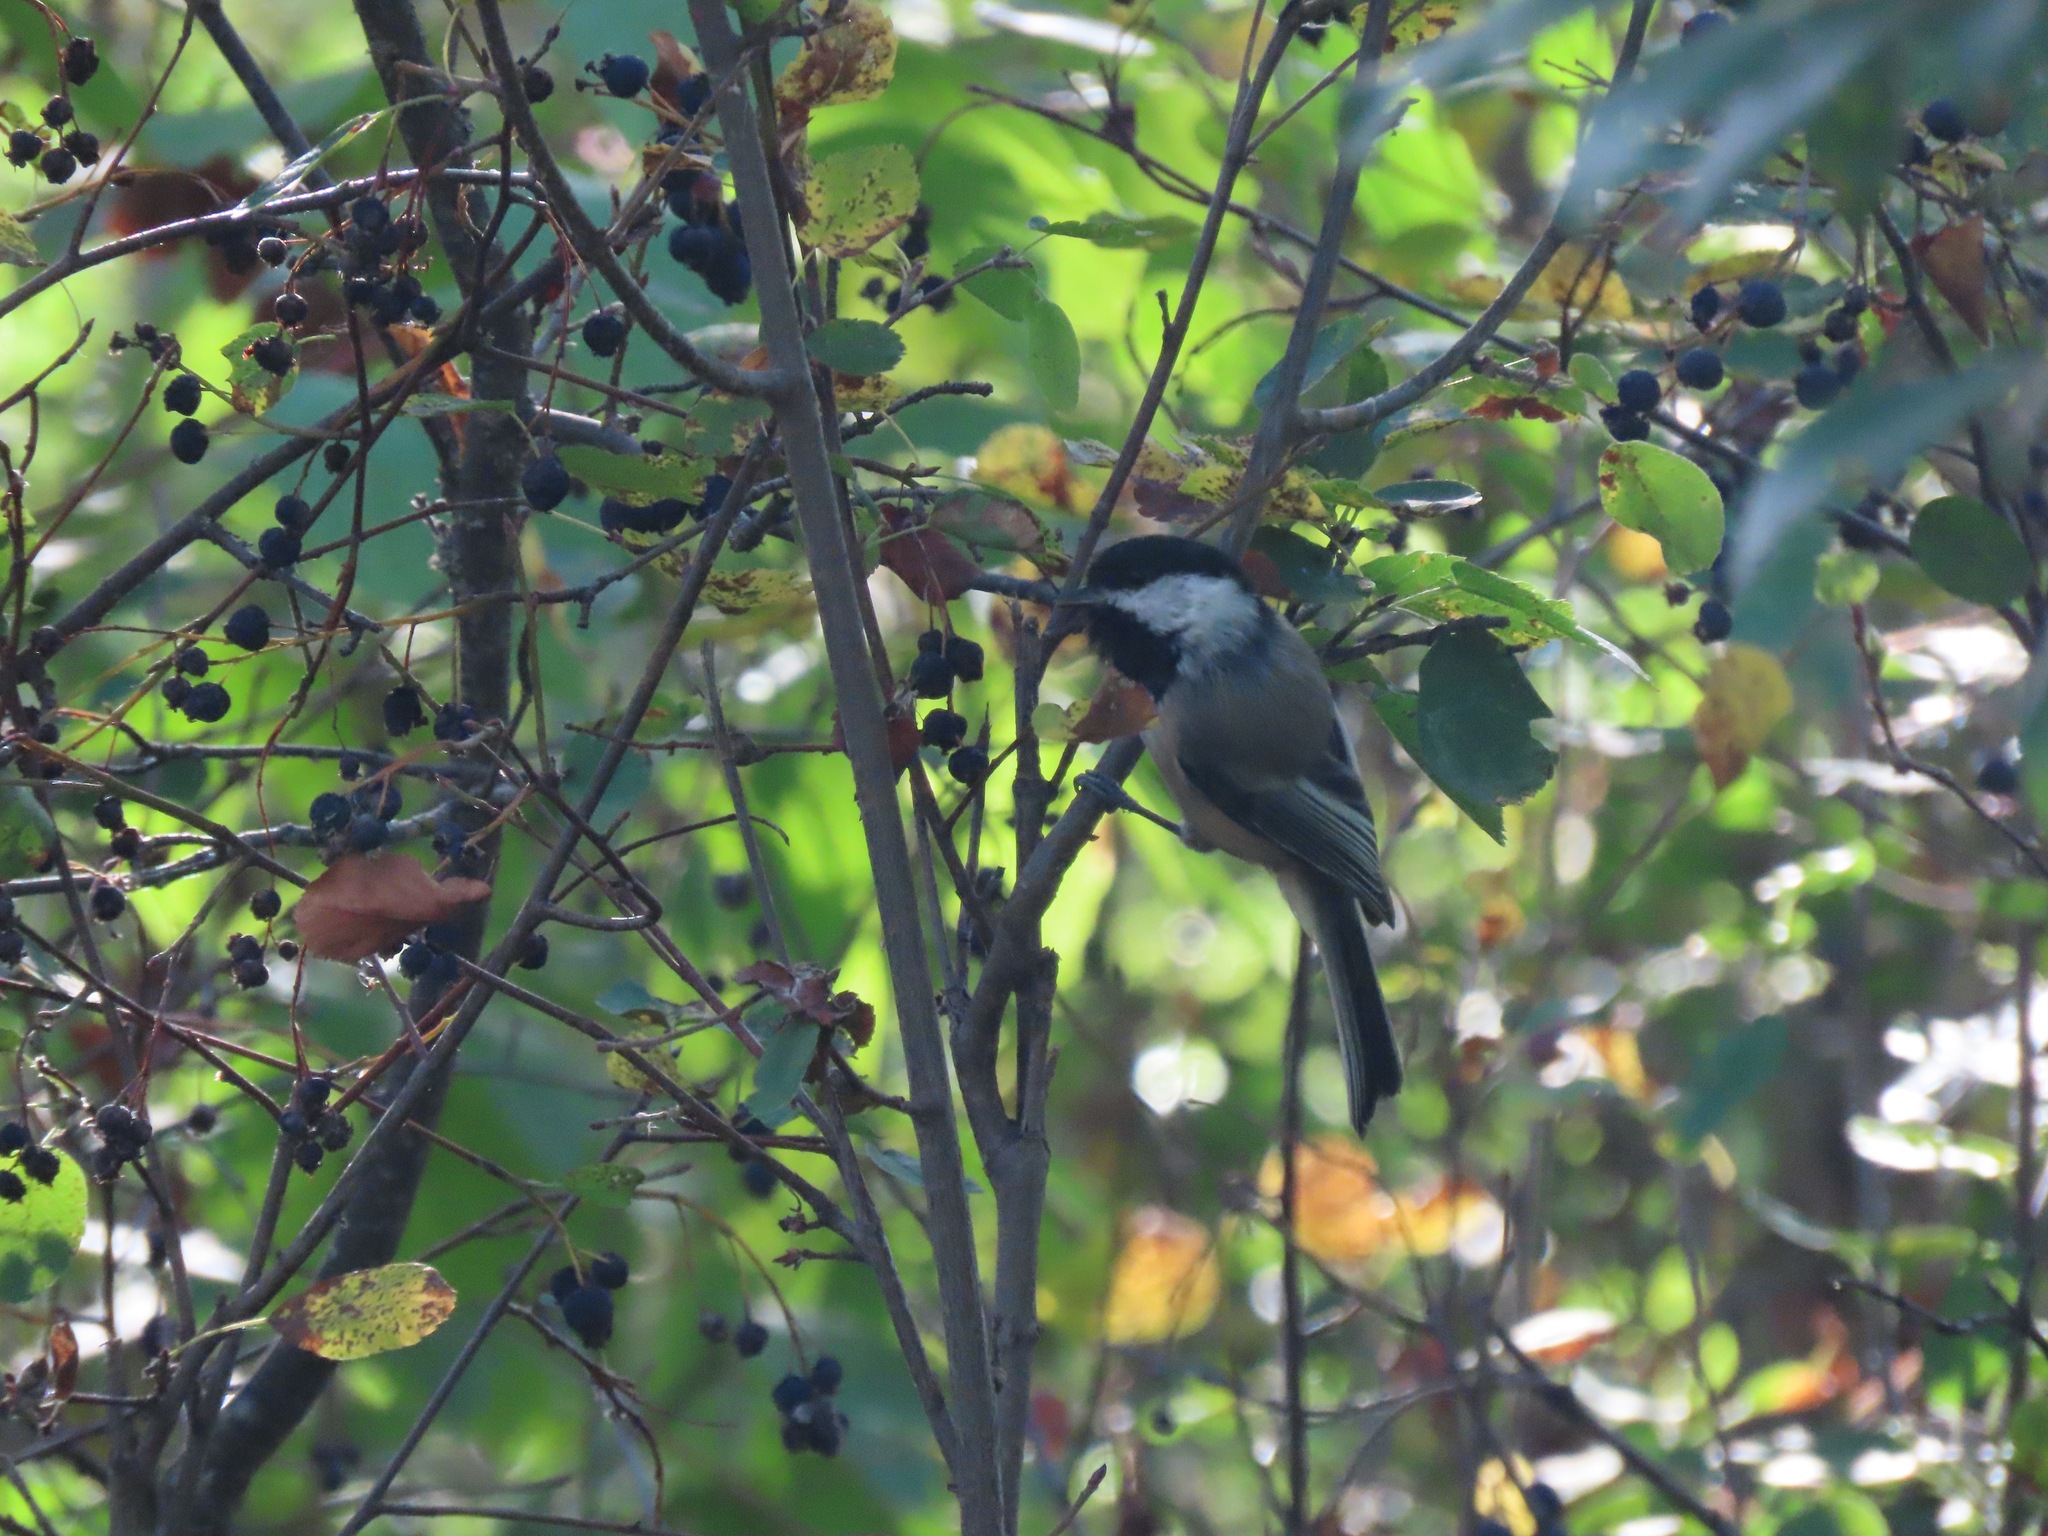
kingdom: Animalia
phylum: Chordata
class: Aves
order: Passeriformes
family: Paridae
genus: Poecile
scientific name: Poecile atricapillus
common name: Black-capped chickadee
